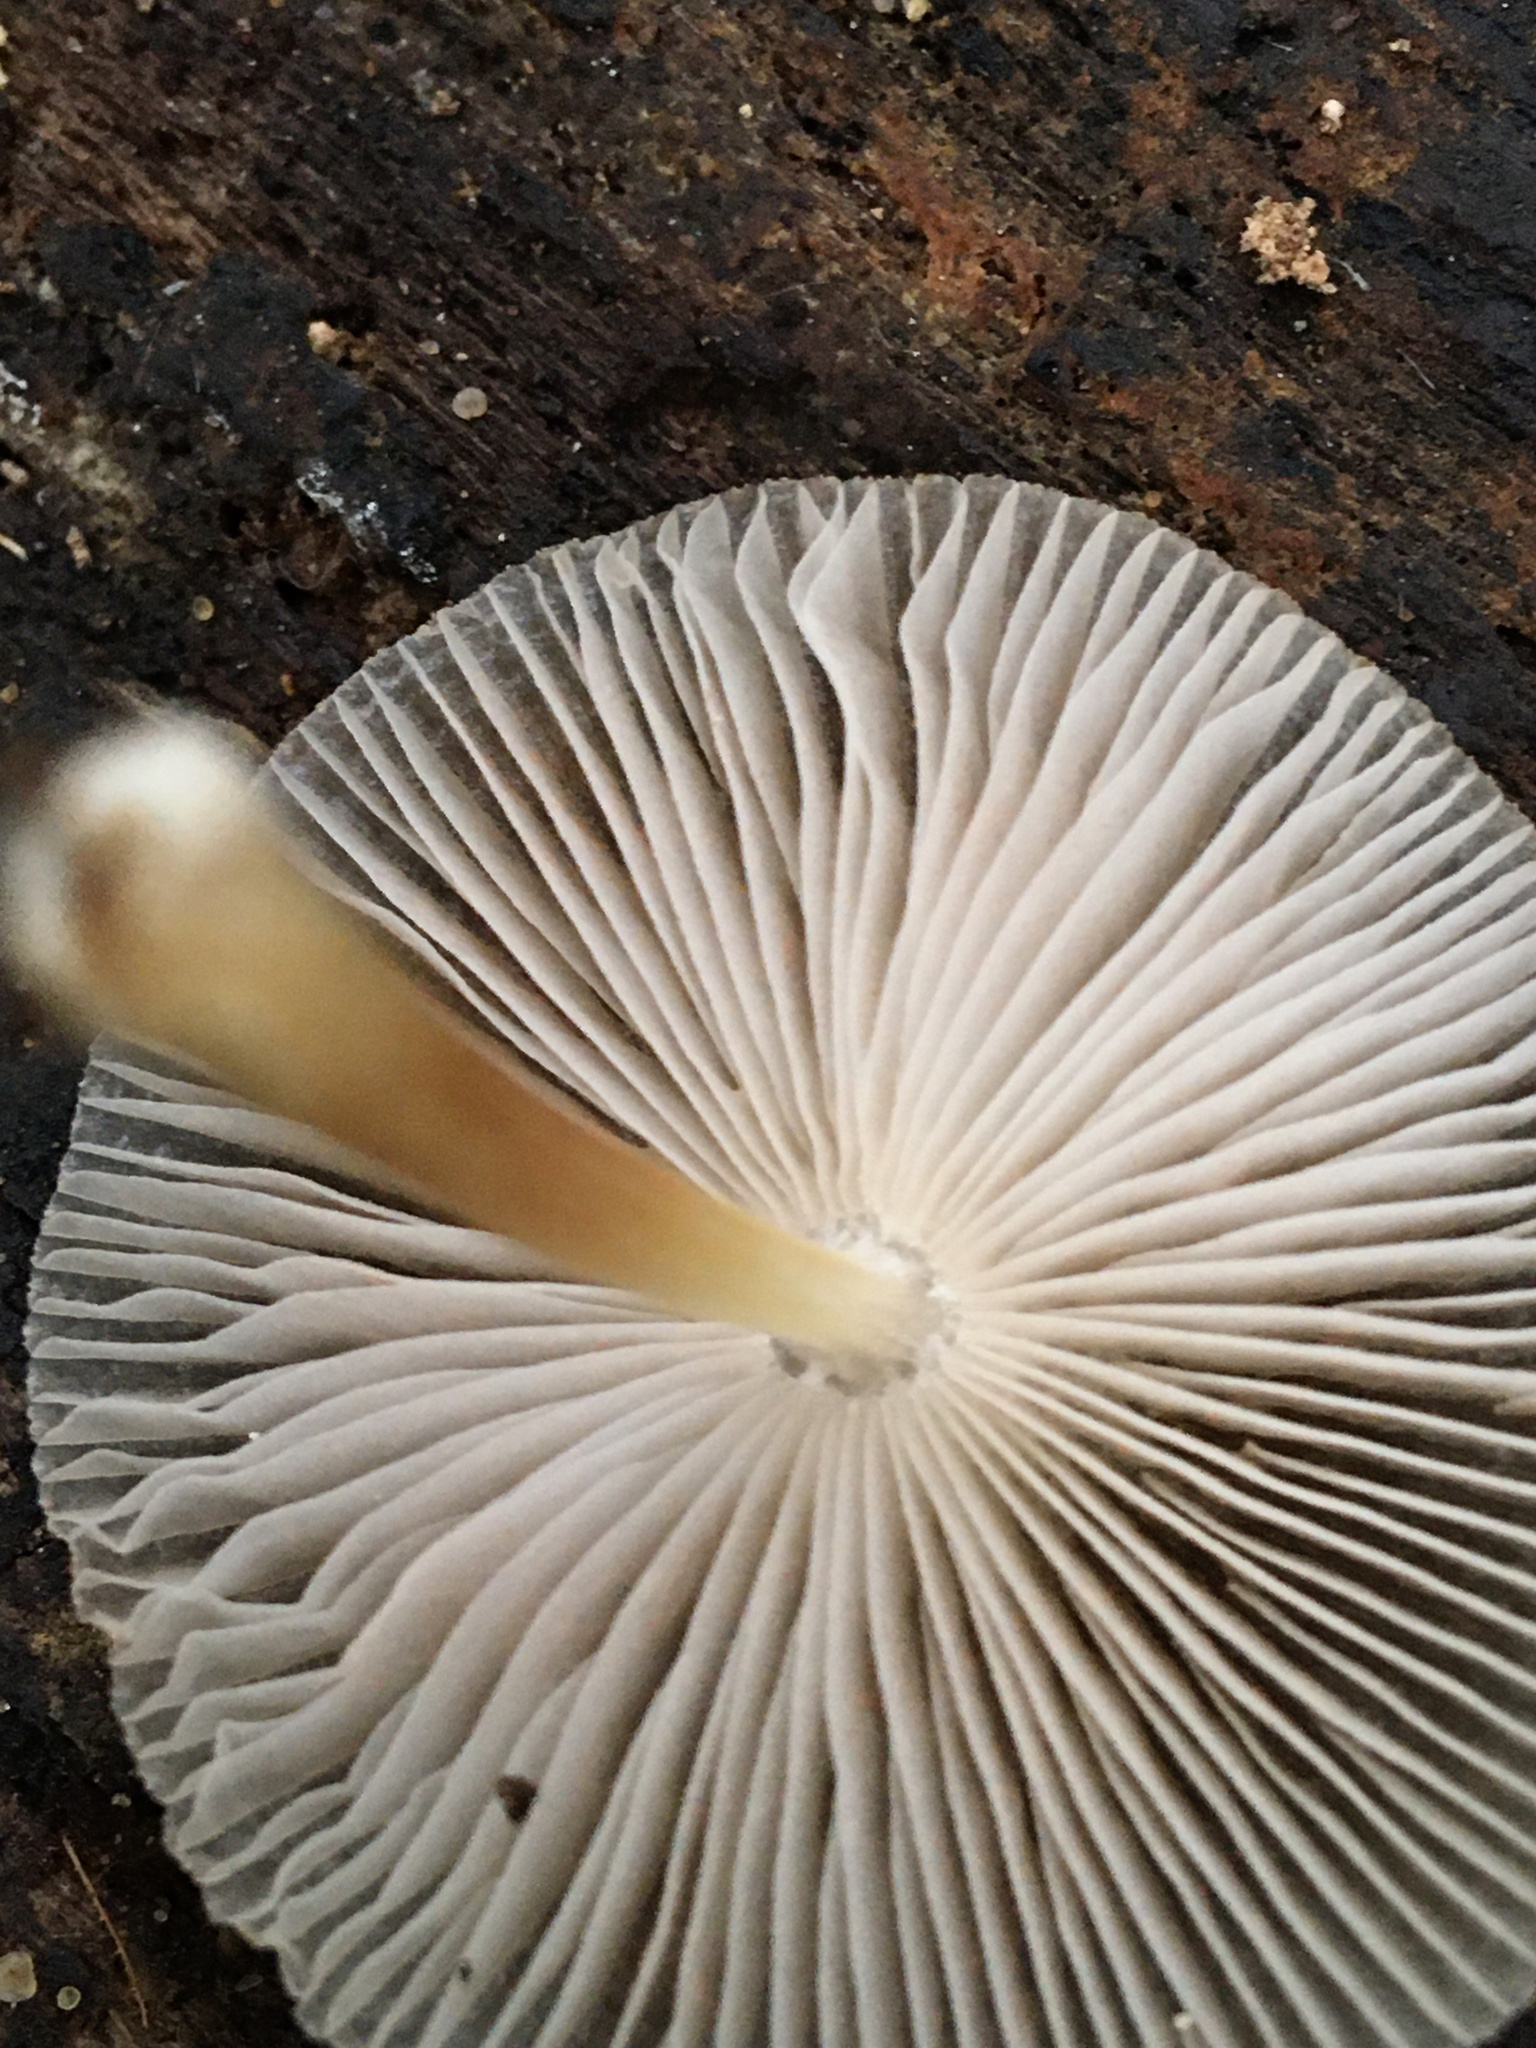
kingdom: Fungi
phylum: Basidiomycota
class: Agaricomycetes
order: Agaricales
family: Pluteaceae
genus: Pluteus
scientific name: Pluteus longistriatus
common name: Pleated pluteus
